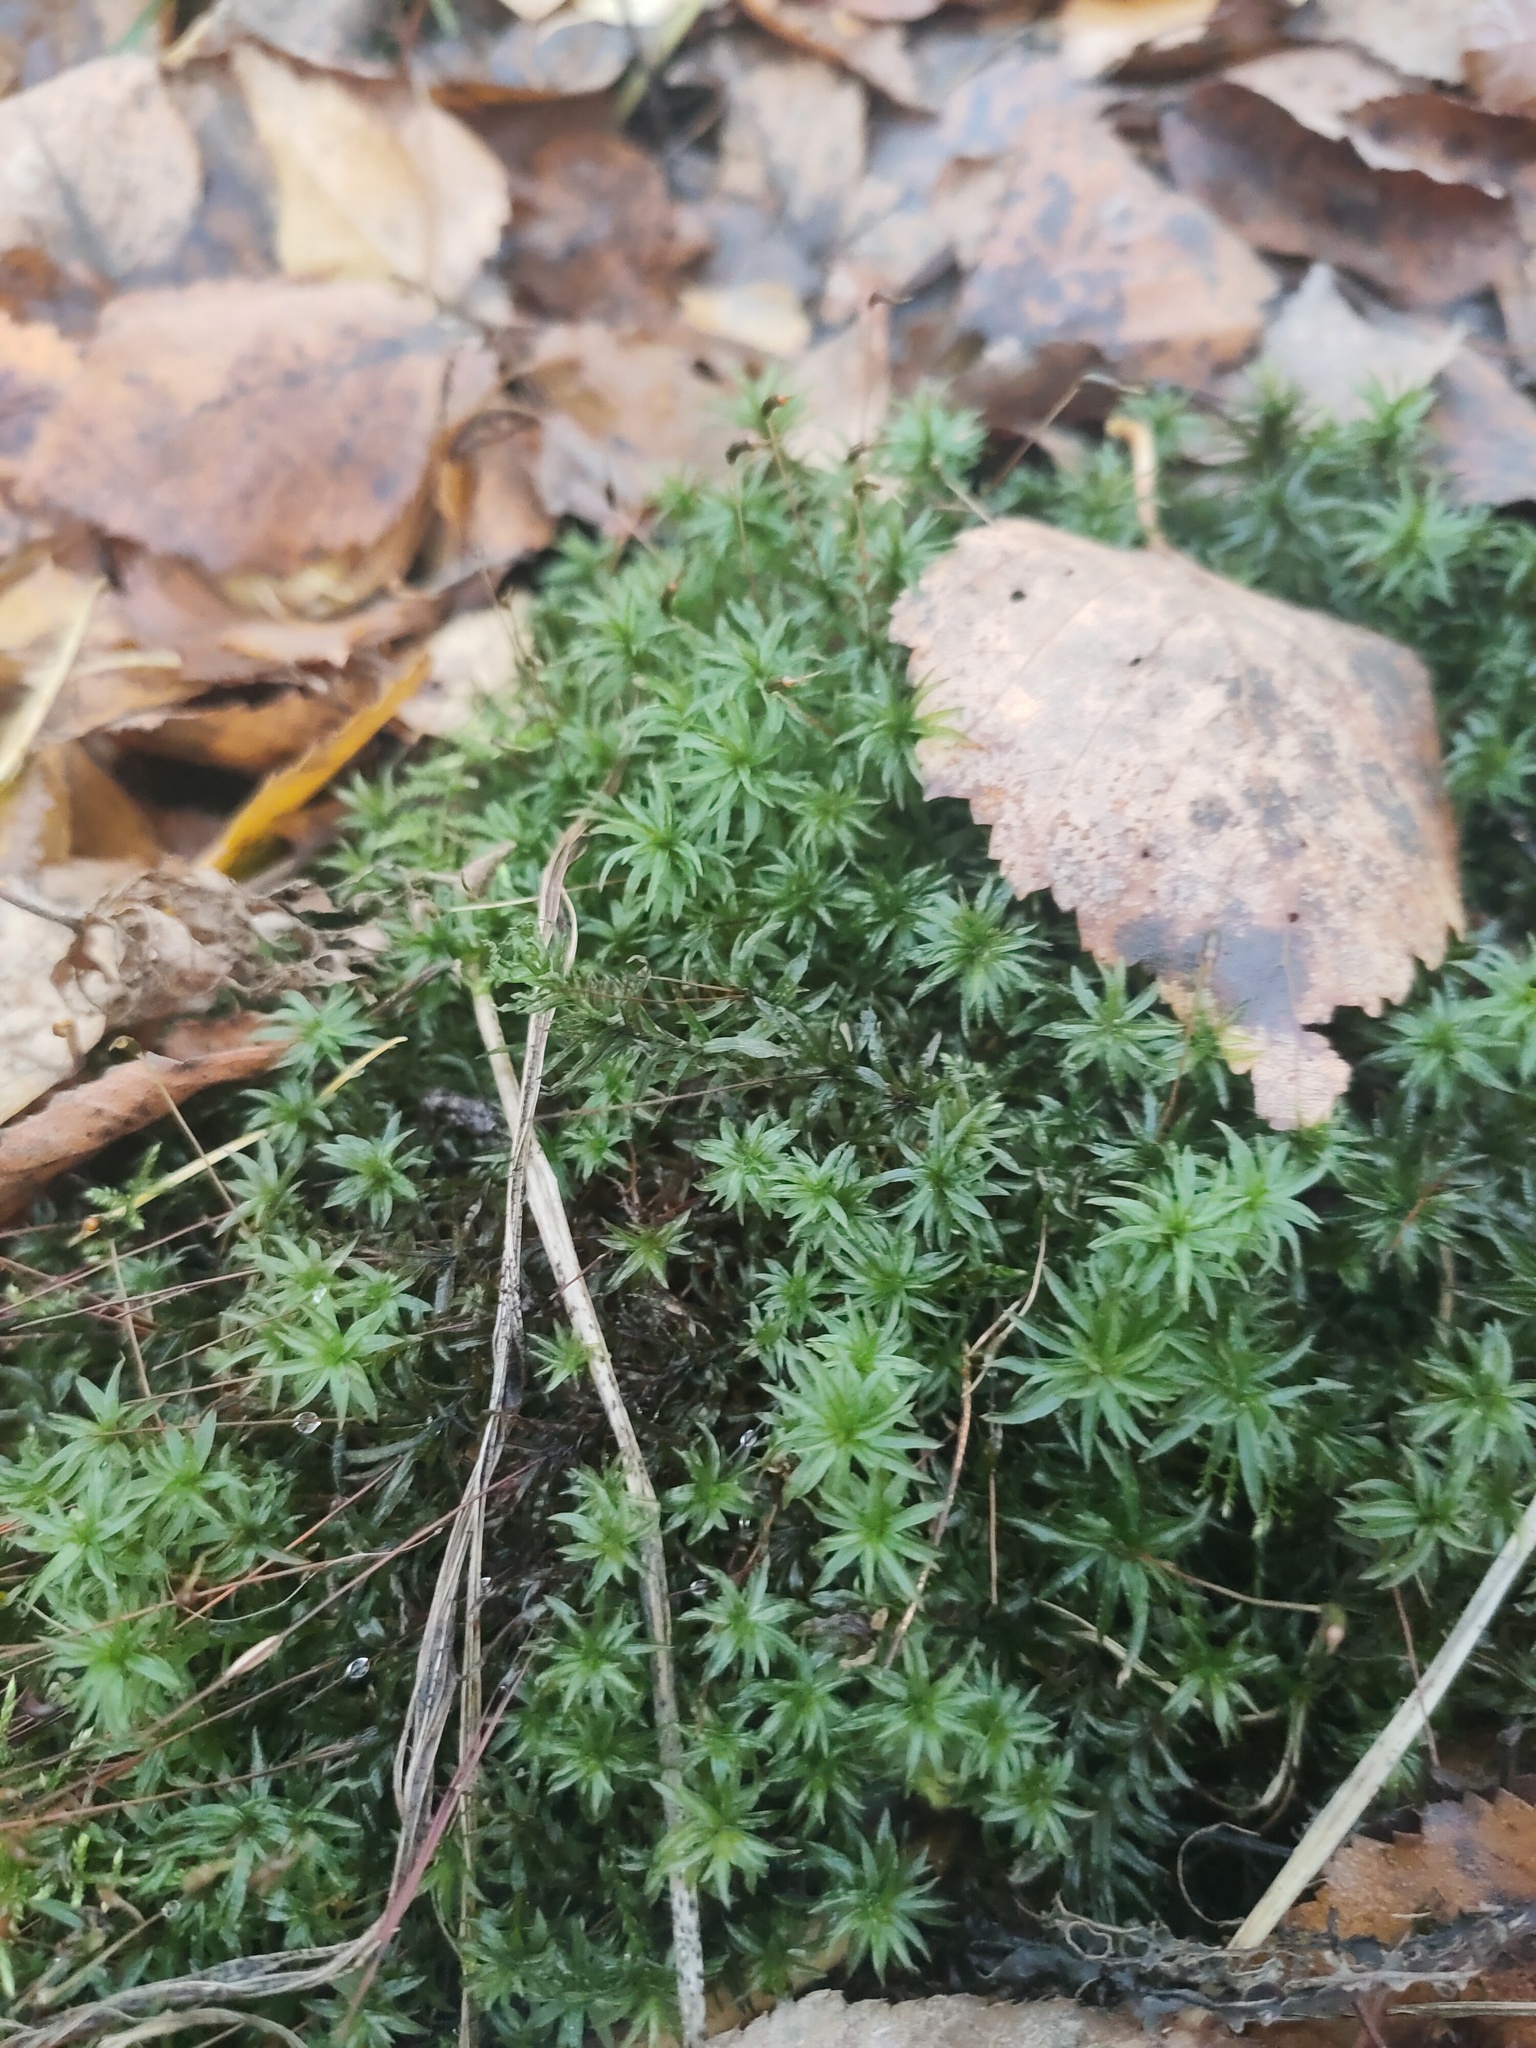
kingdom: Plantae
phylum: Bryophyta
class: Polytrichopsida
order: Polytrichales
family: Polytrichaceae
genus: Atrichum
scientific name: Atrichum undulatum
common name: Common smoothcap
